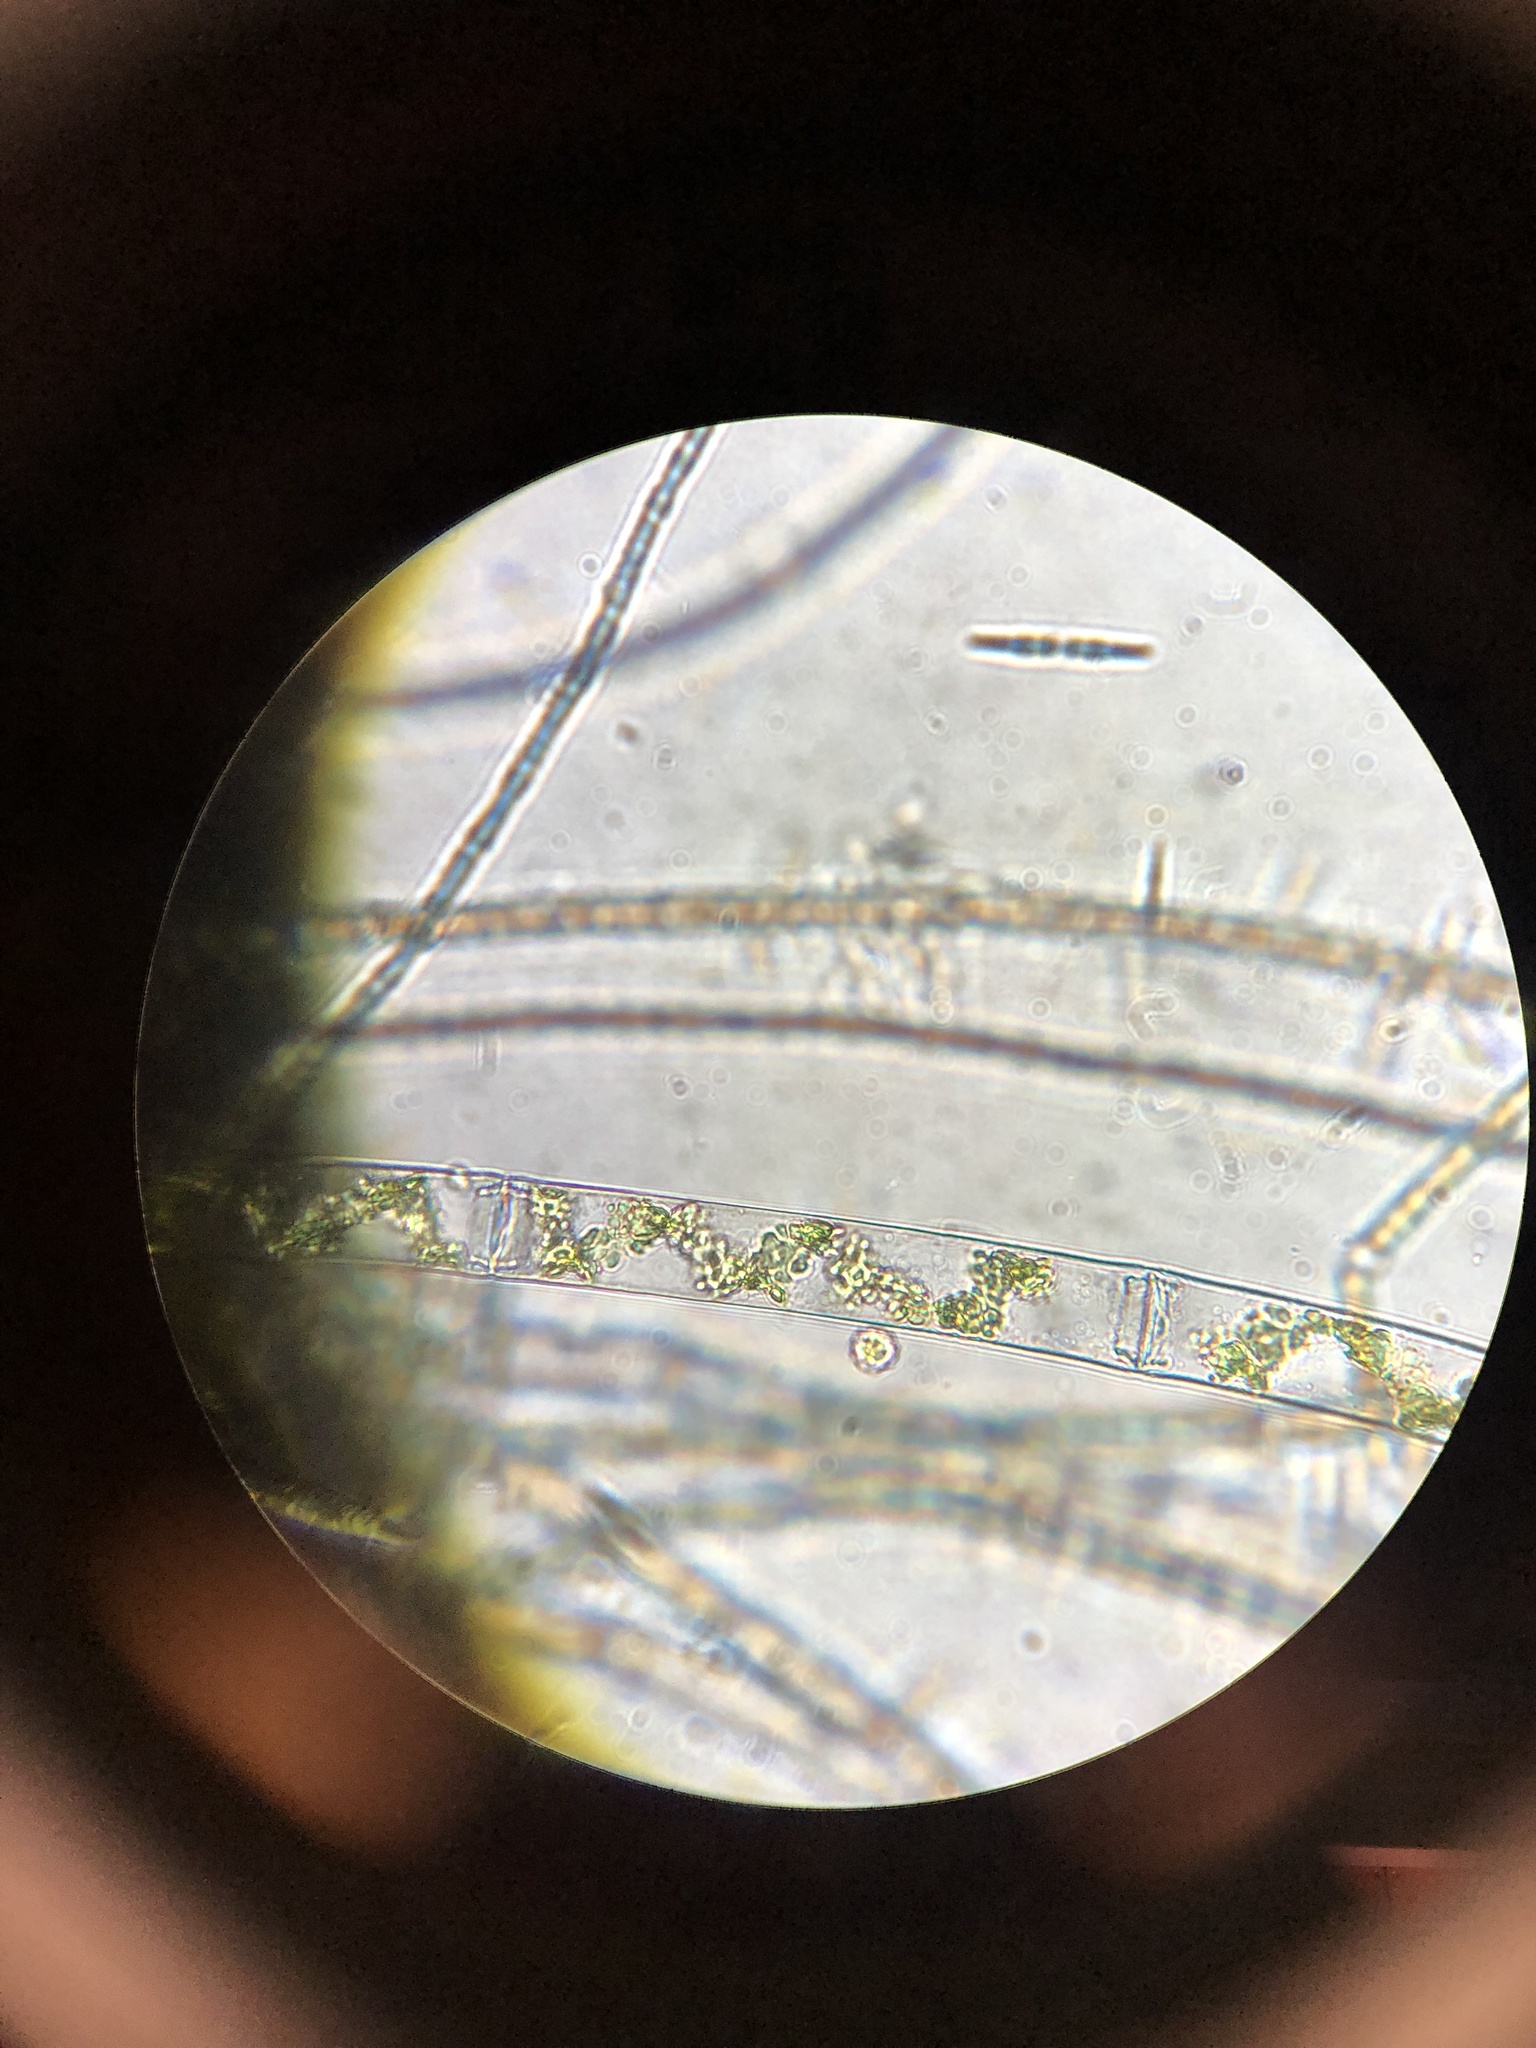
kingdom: Plantae
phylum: Charophyta
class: Zygnematophyceae
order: Zygnematales
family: Zygnemataceae
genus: Spirogyra
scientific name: Spirogyra
